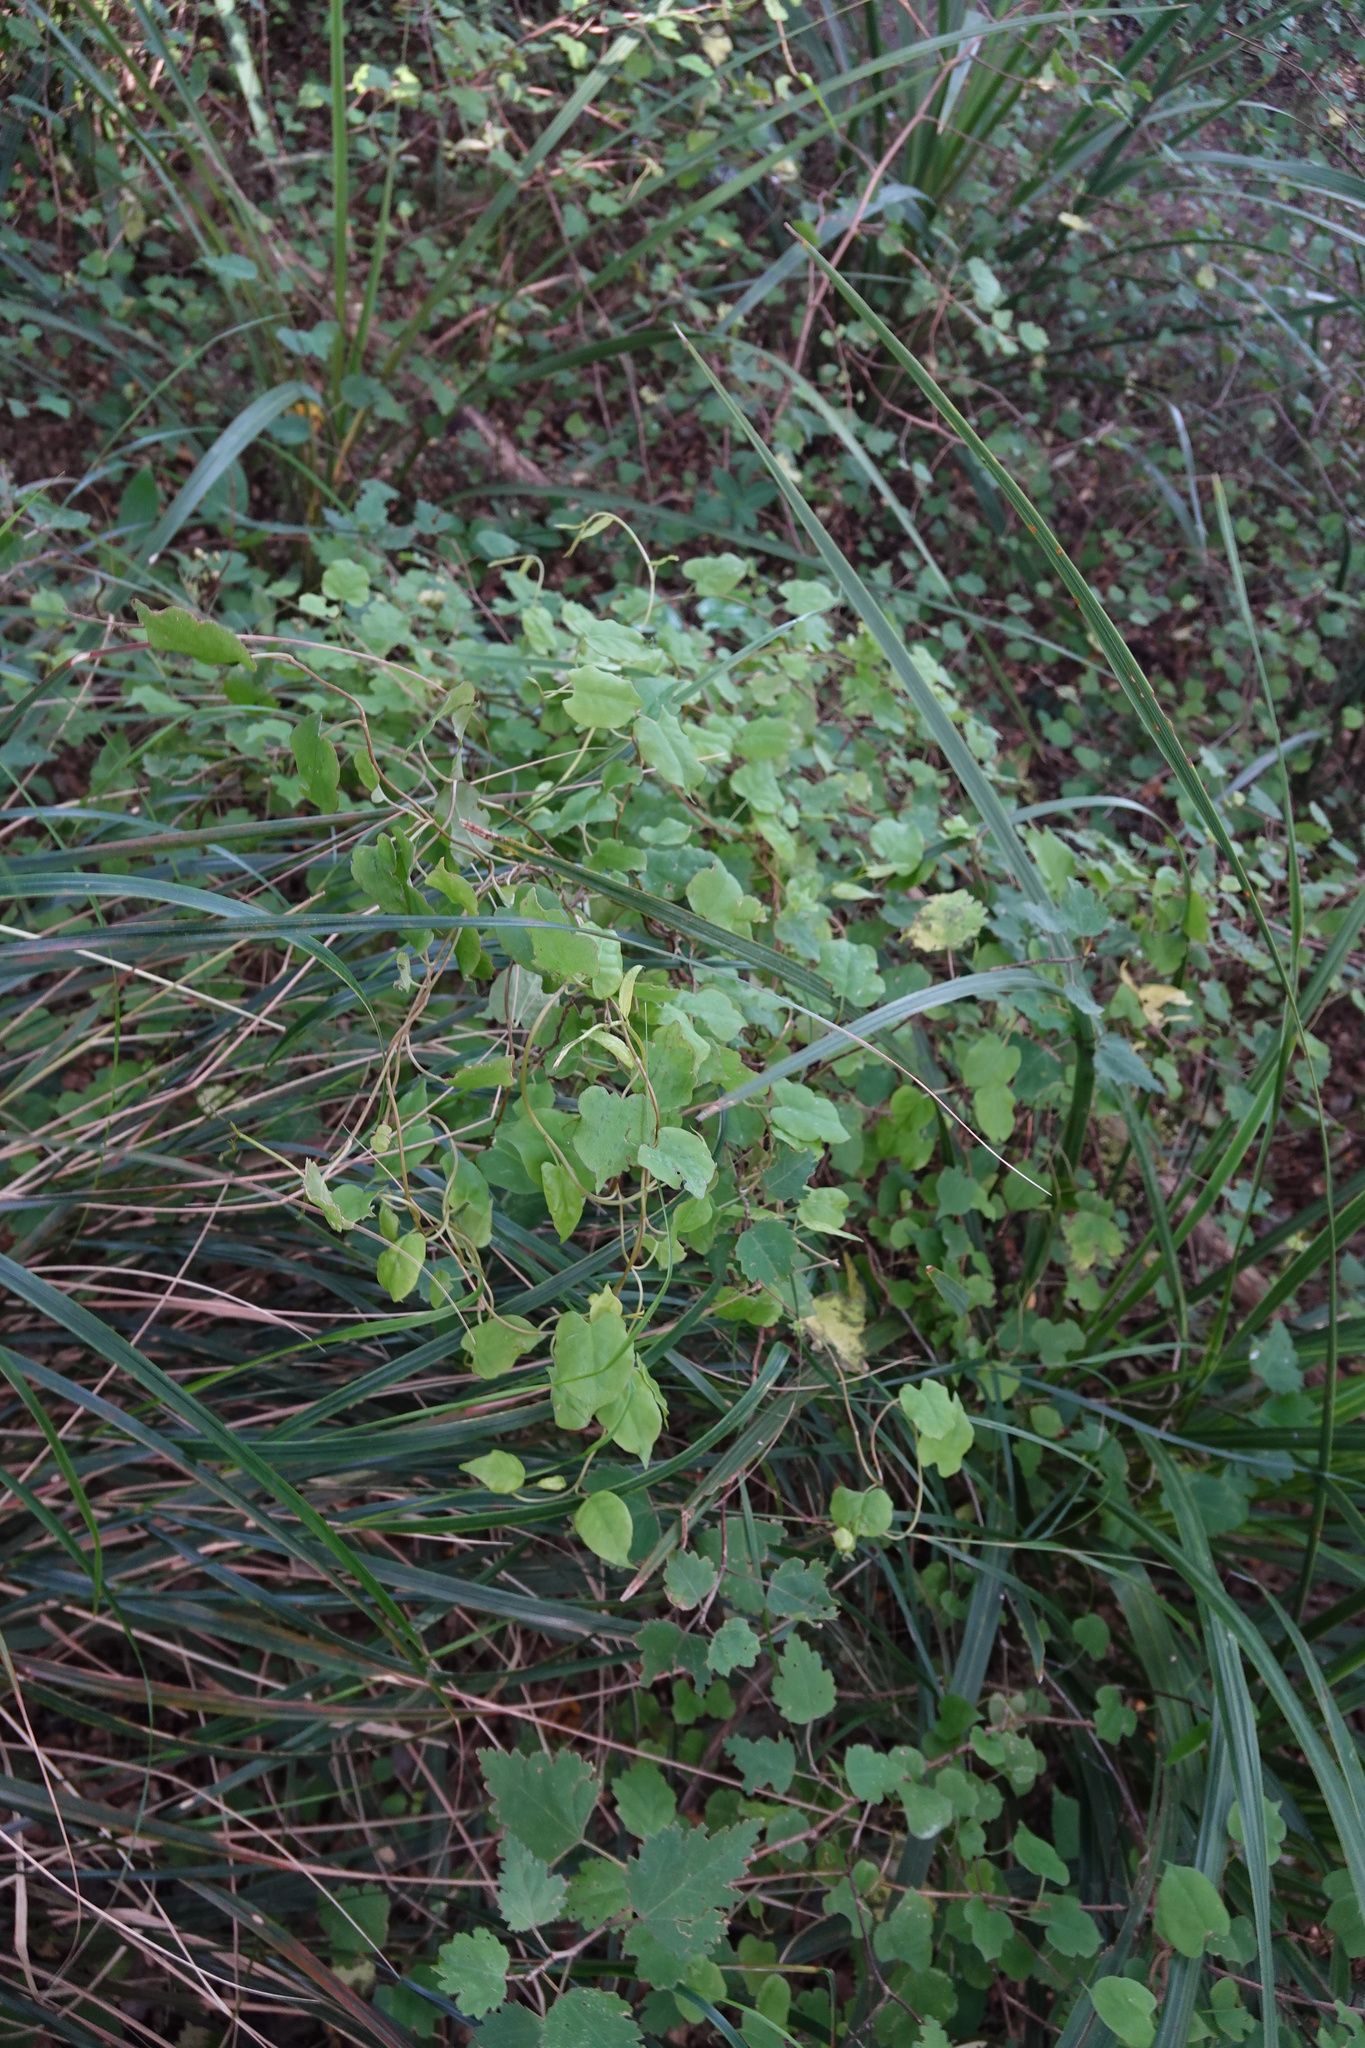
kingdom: Plantae
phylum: Tracheophyta
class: Magnoliopsida
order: Caryophyllales
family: Polygonaceae
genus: Muehlenbeckia
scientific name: Muehlenbeckia australis
